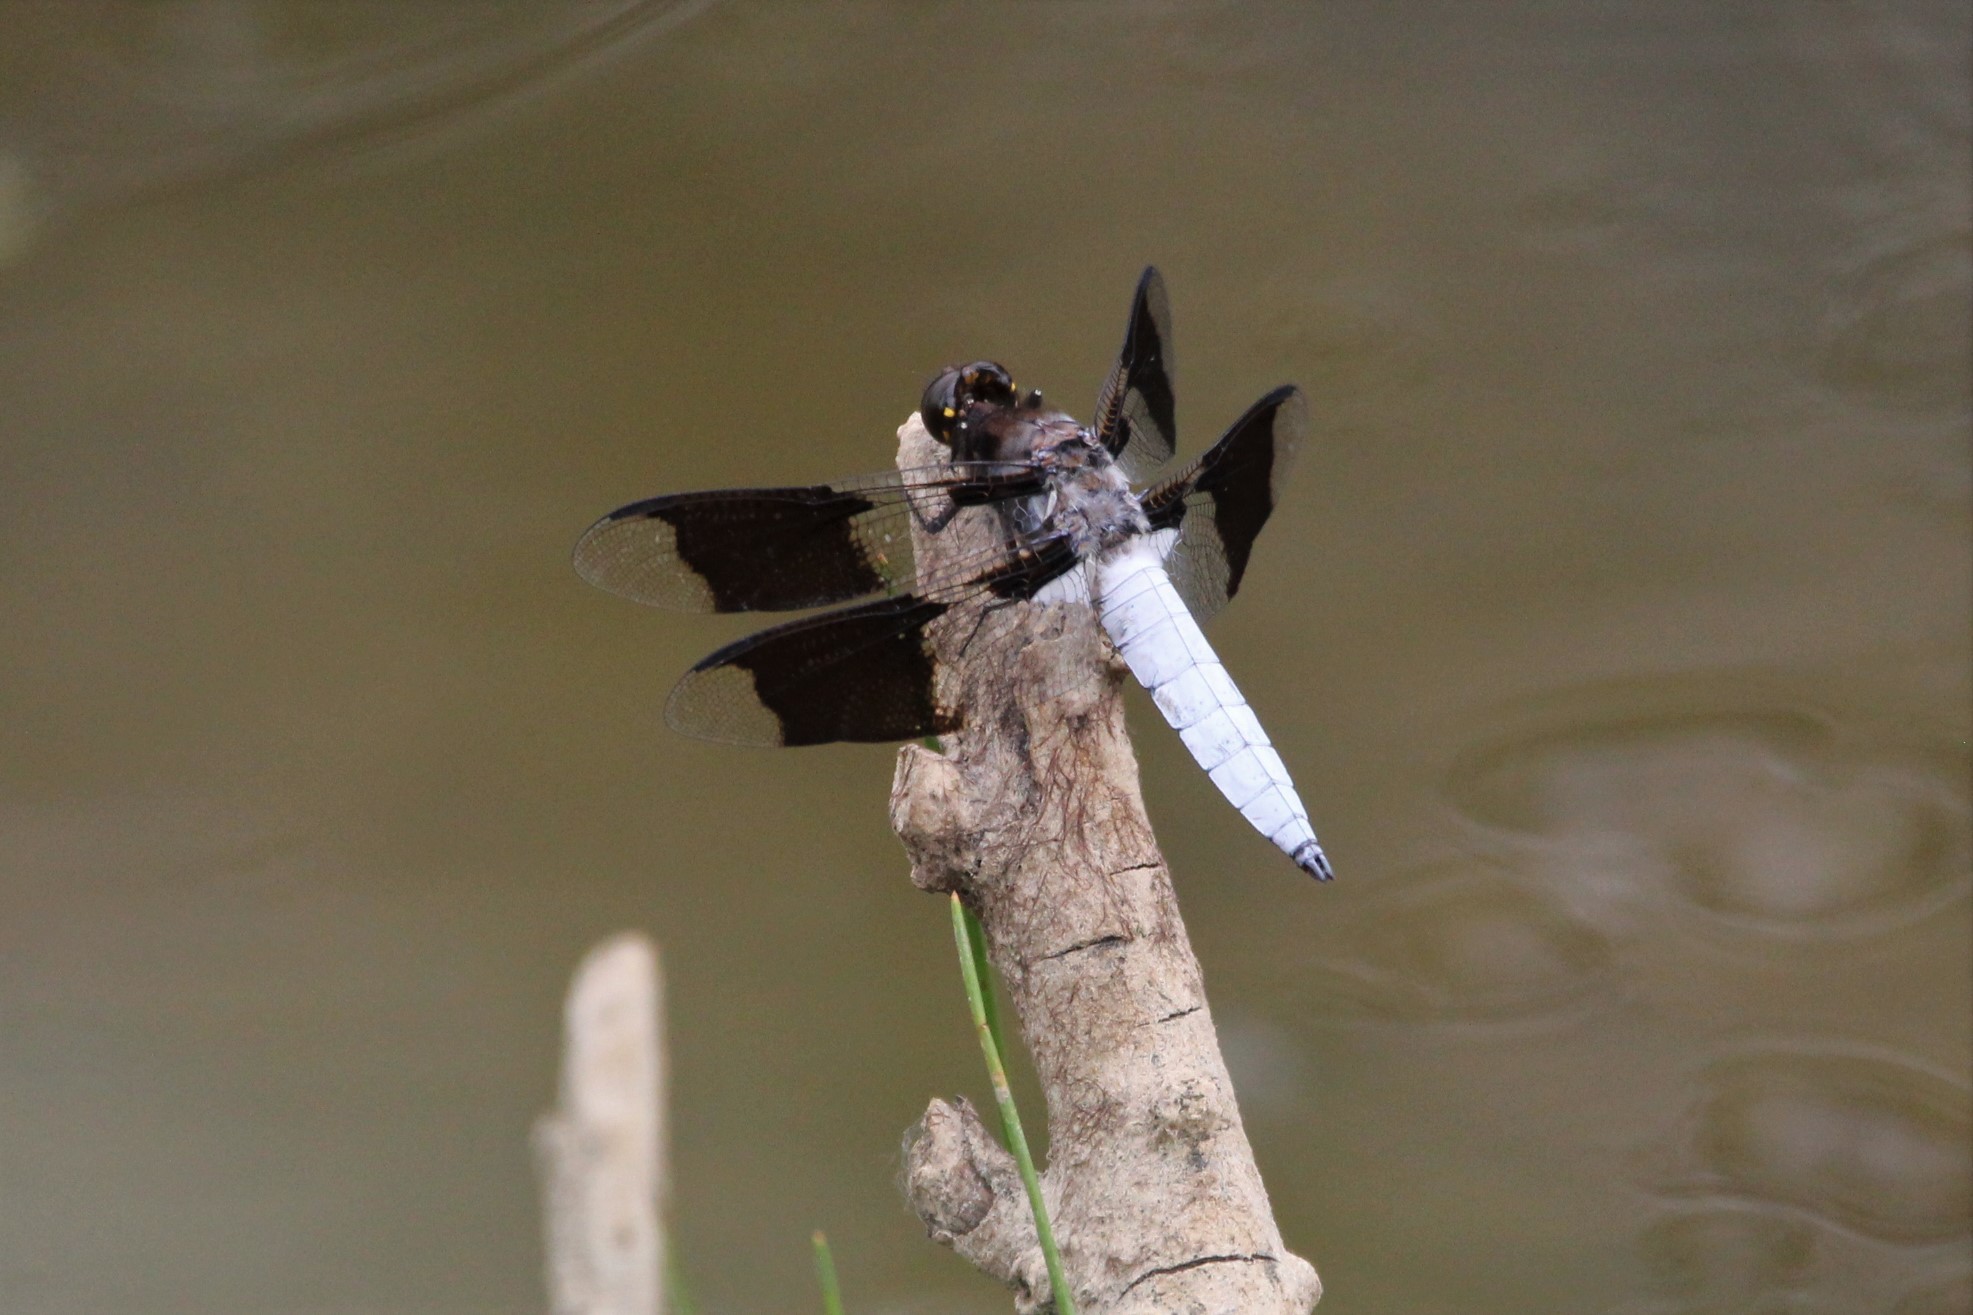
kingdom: Animalia
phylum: Arthropoda
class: Insecta
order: Odonata
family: Libellulidae
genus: Plathemis
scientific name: Plathemis lydia
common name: Common whitetail
